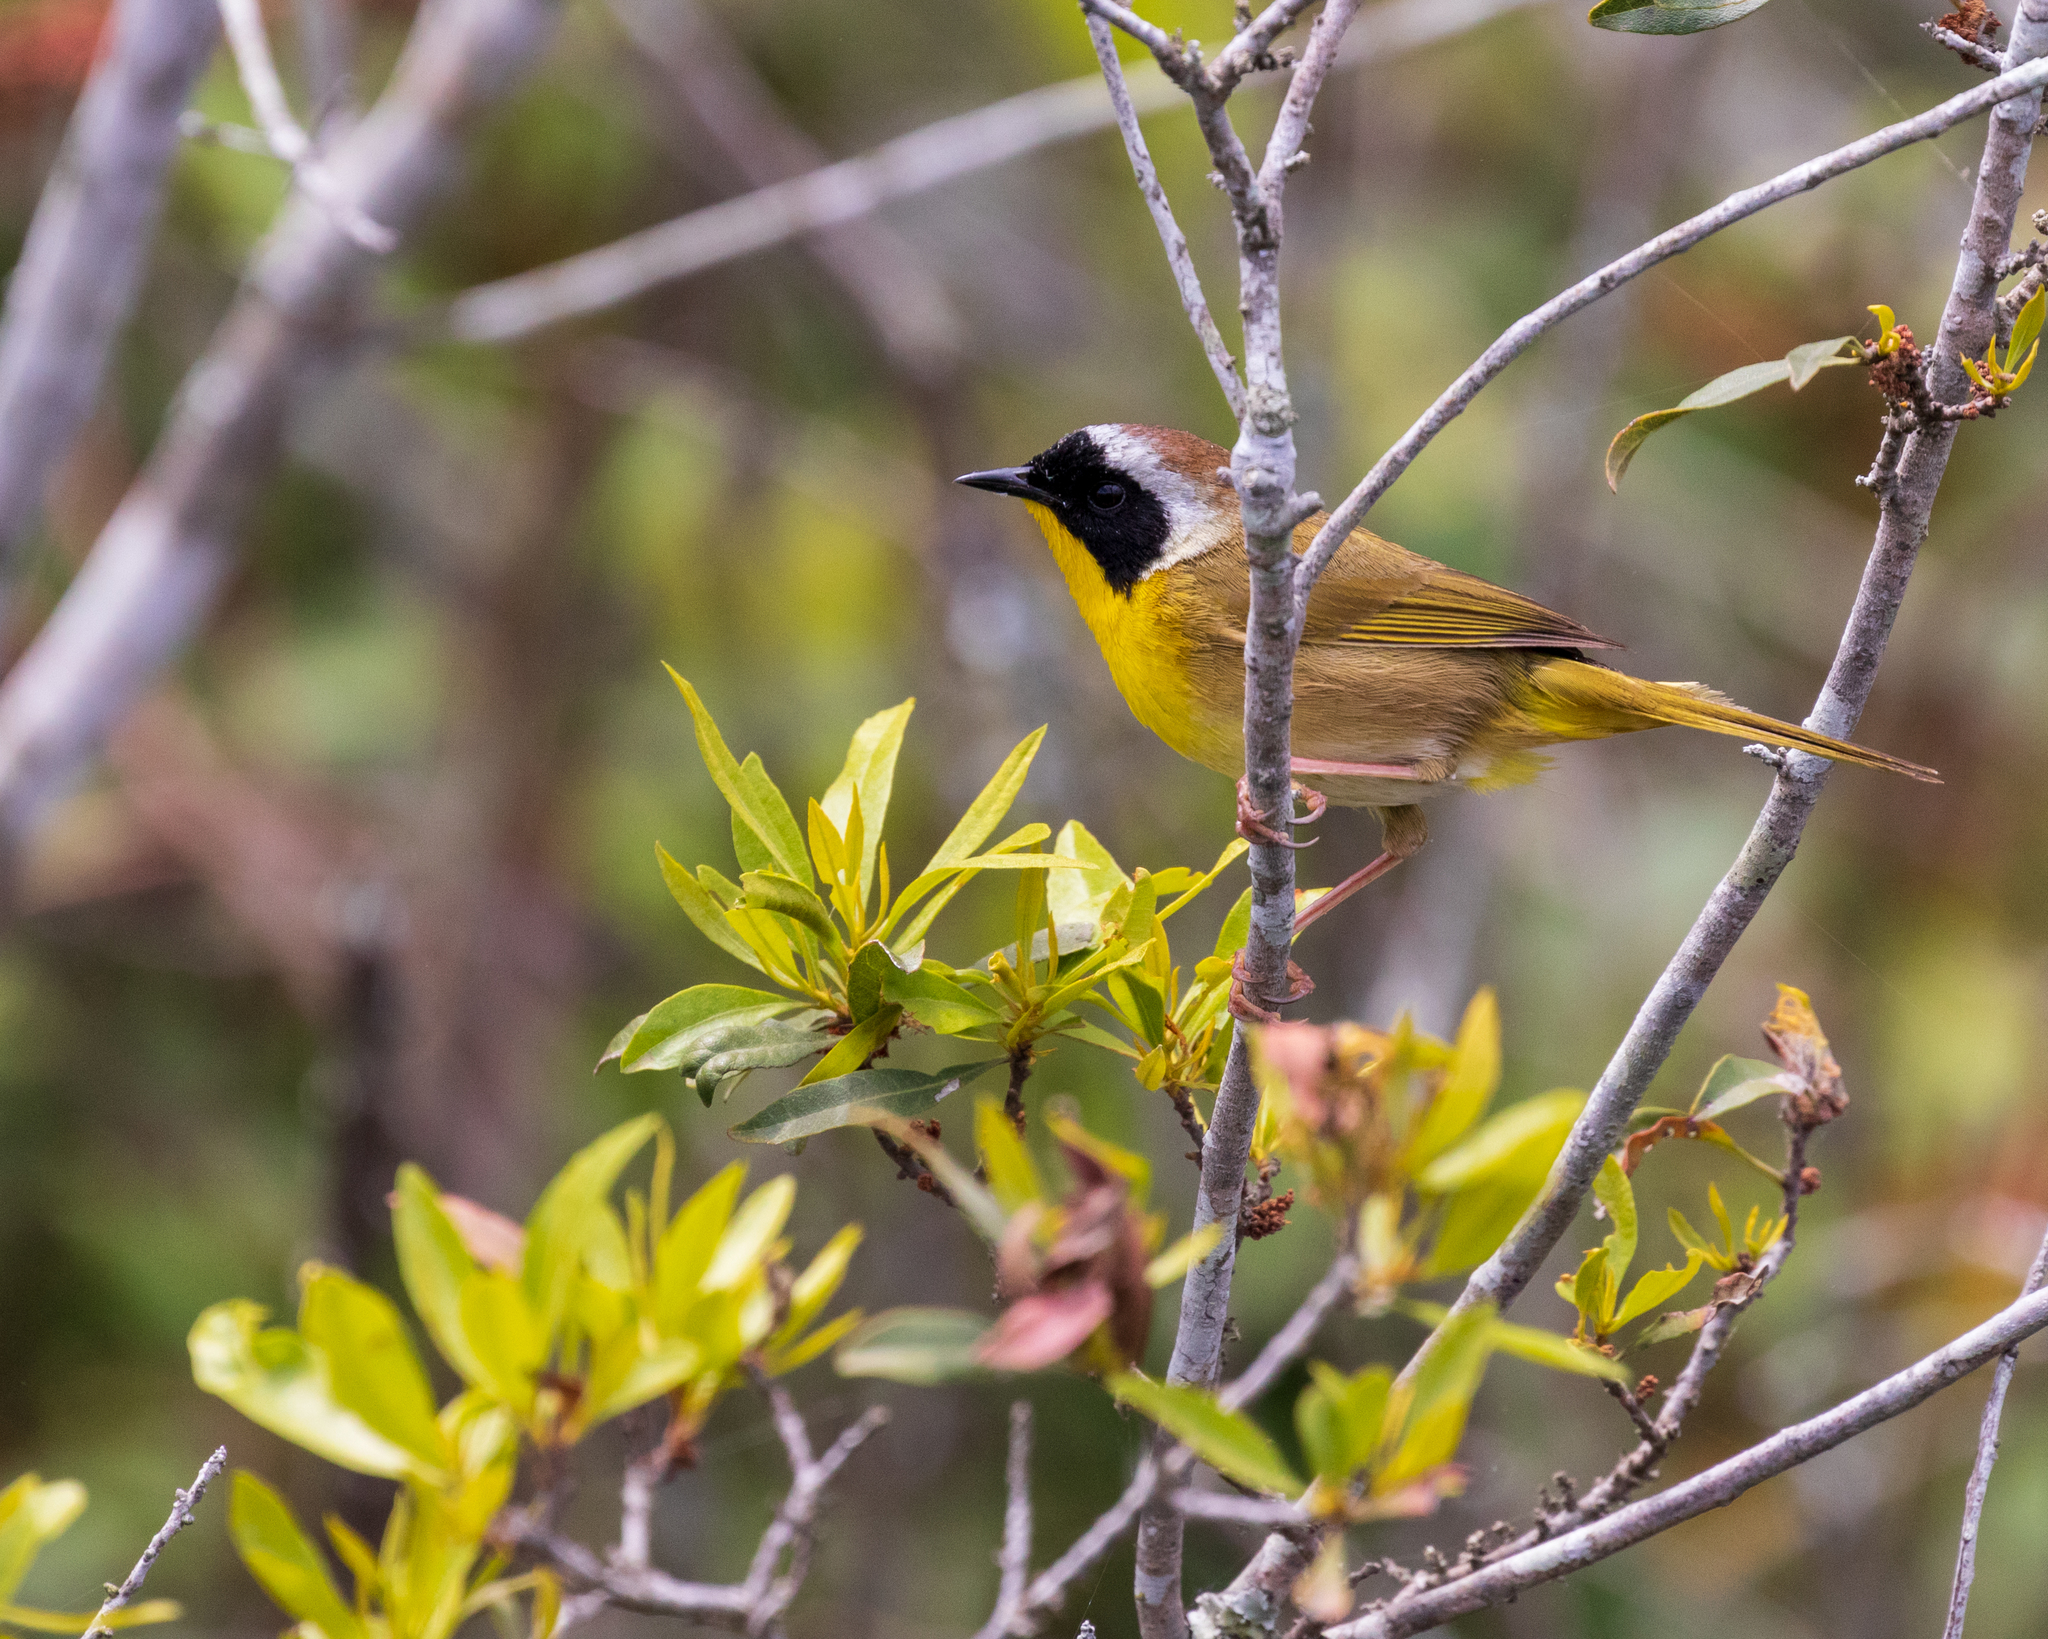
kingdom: Animalia
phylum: Chordata
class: Aves
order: Passeriformes
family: Parulidae
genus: Geothlypis
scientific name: Geothlypis trichas
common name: Common yellowthroat
